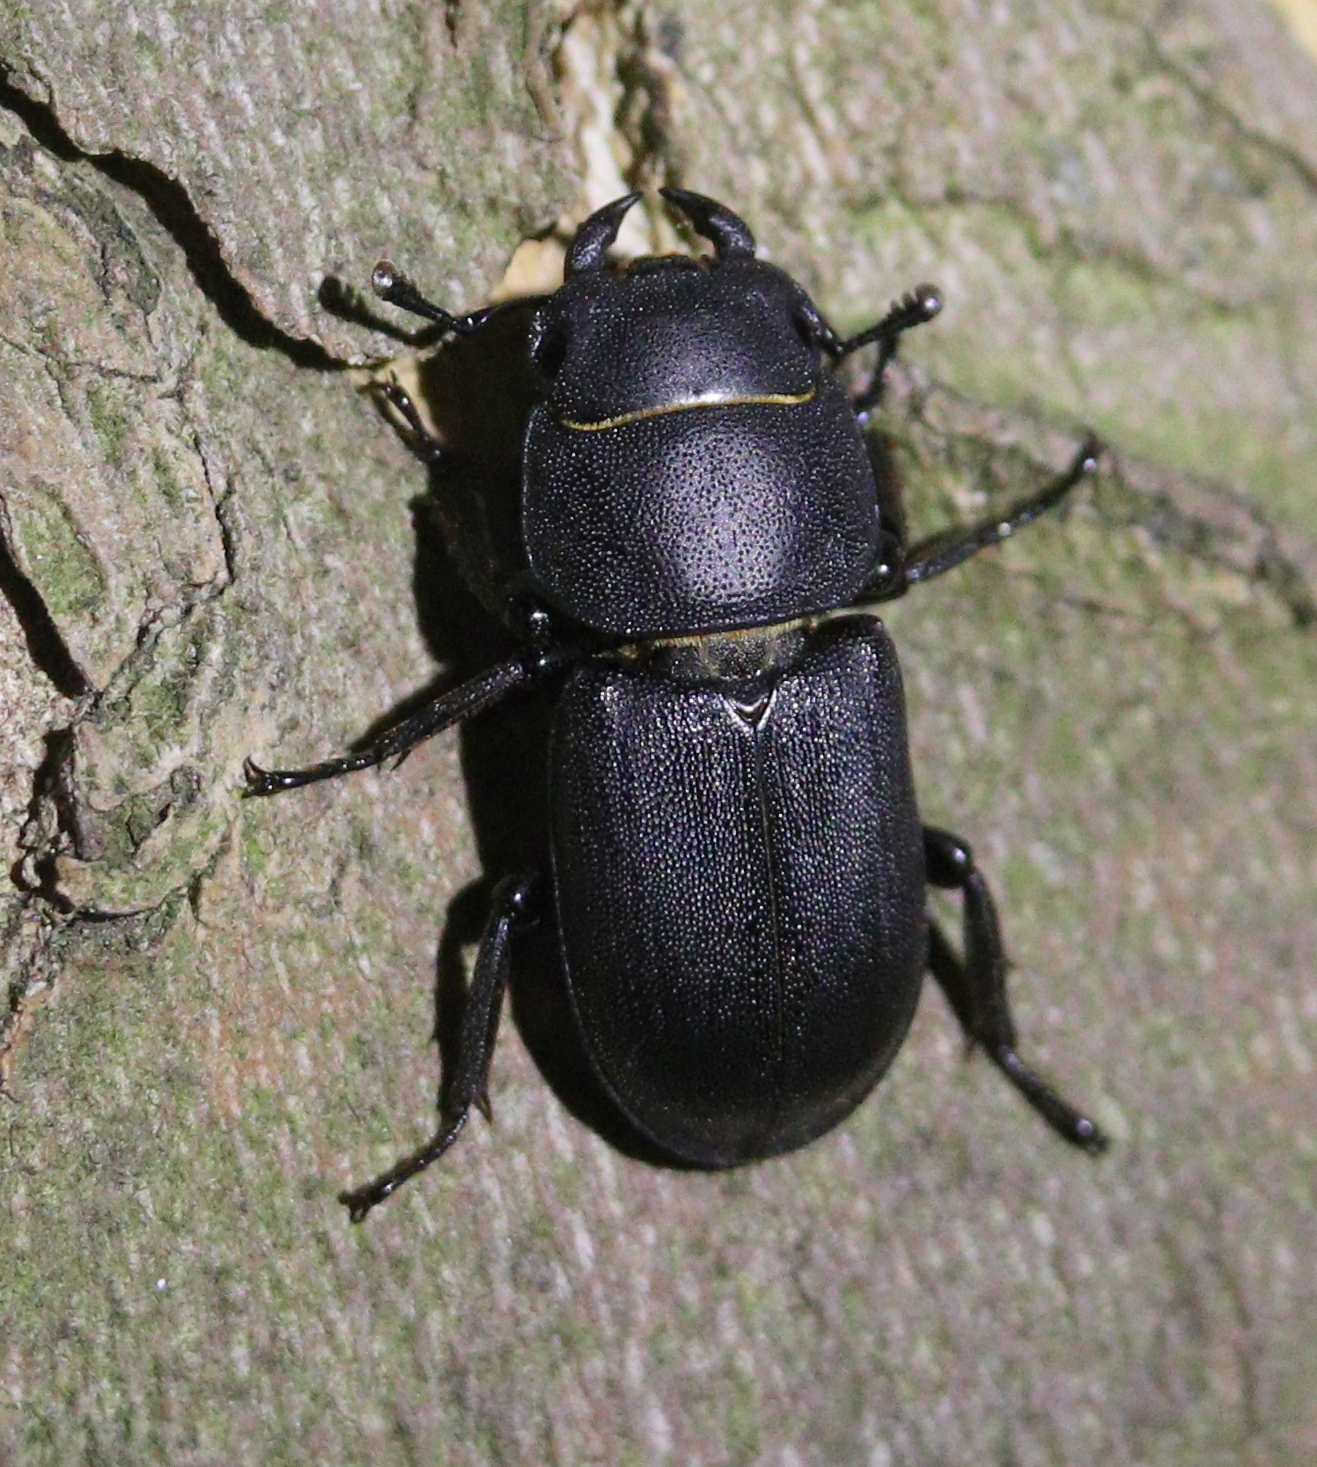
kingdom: Animalia
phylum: Arthropoda
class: Insecta
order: Coleoptera
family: Lucanidae
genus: Dorcus
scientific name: Dorcus parallelipipedus
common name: Lesser stag beetle
